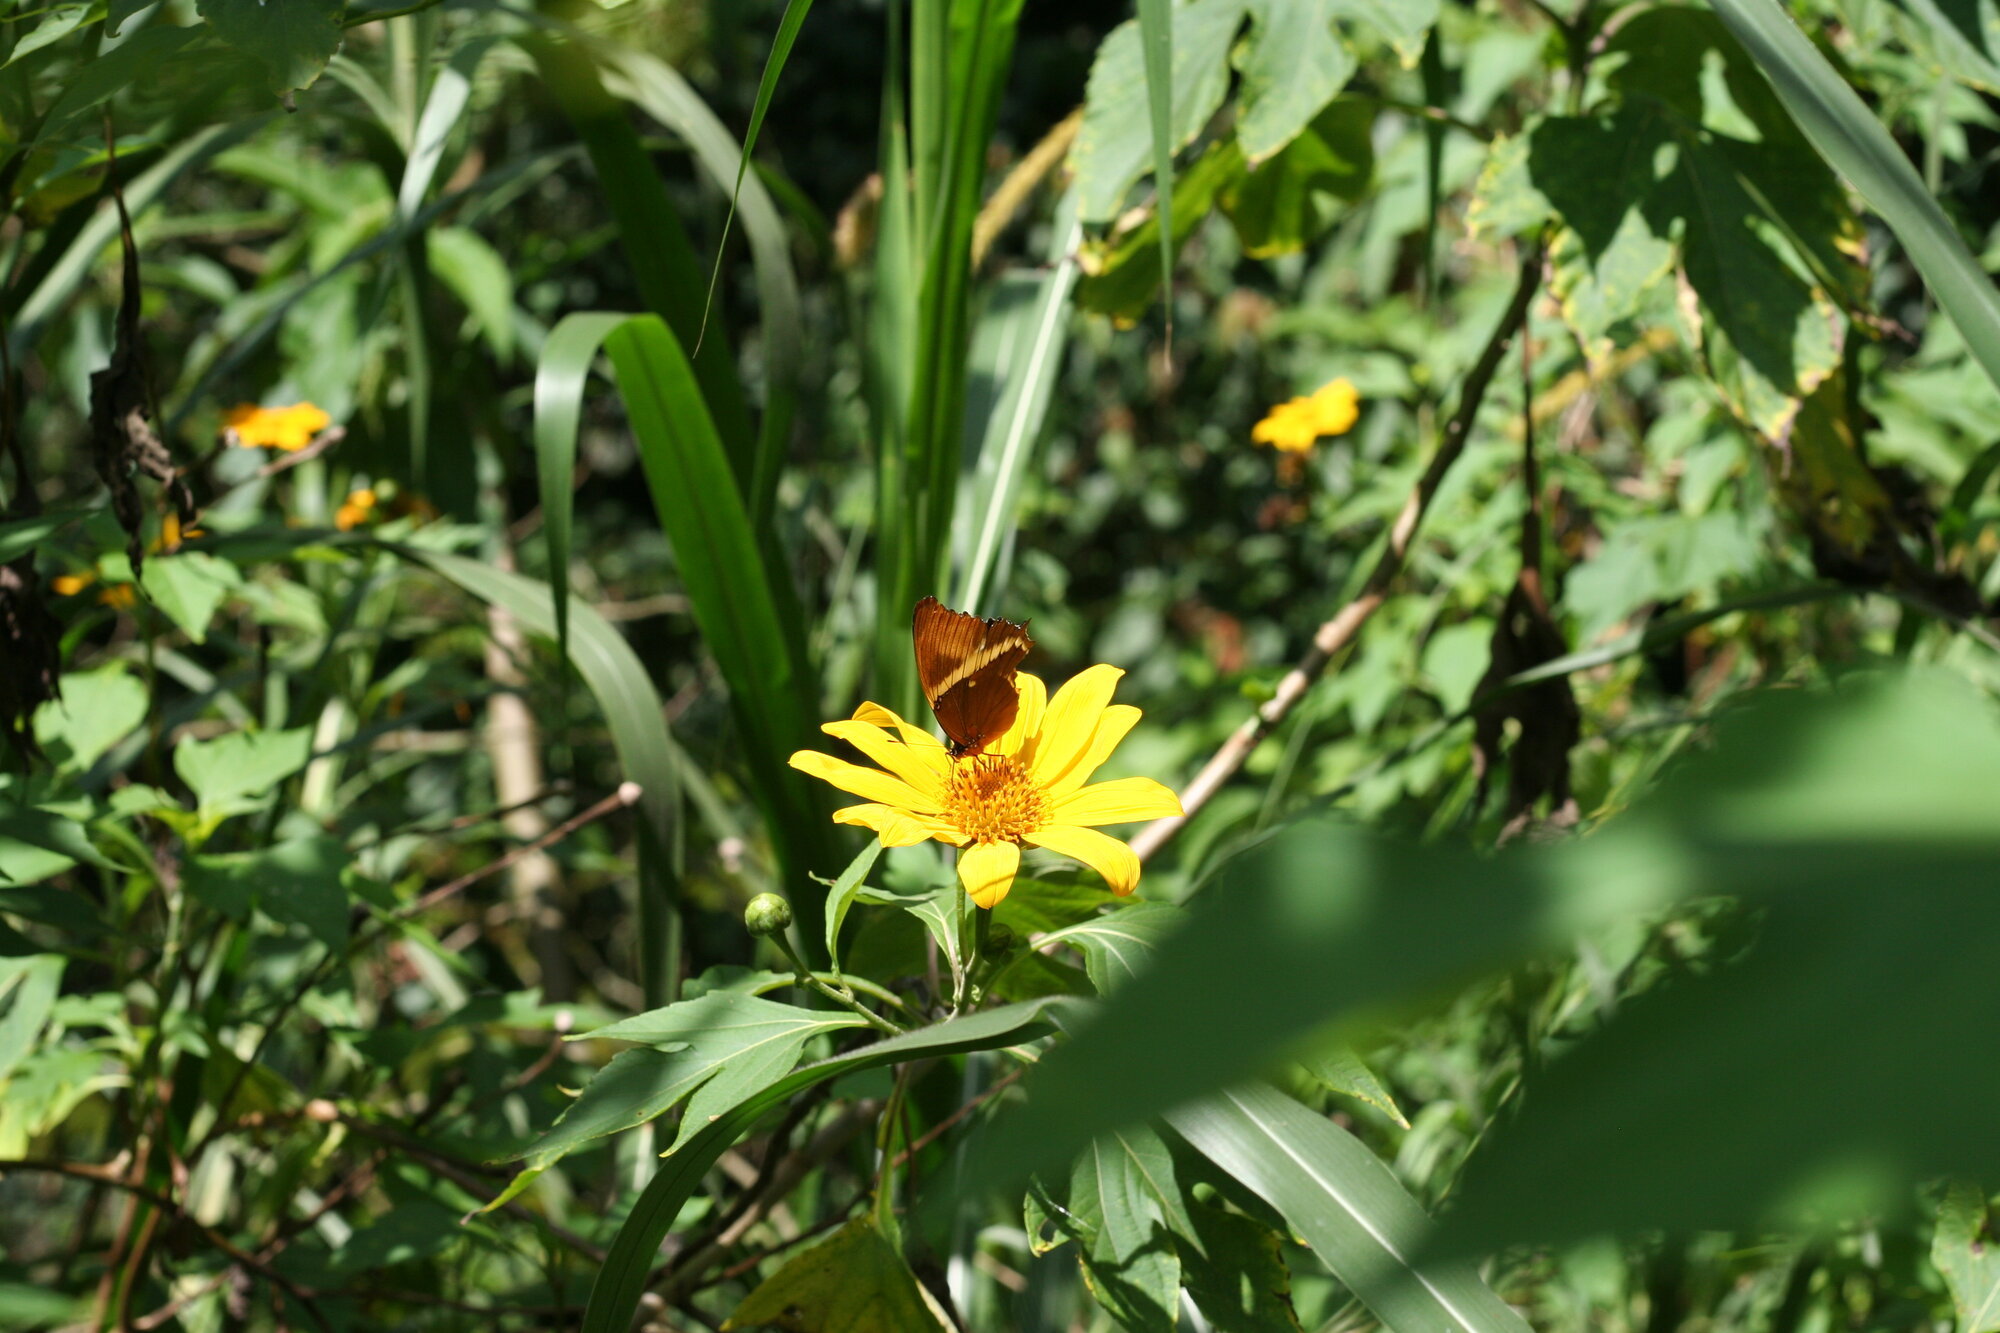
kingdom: Animalia
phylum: Arthropoda
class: Insecta
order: Lepidoptera
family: Nymphalidae
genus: Siproeta
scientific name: Siproeta epaphus
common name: Rusty-tipped page
